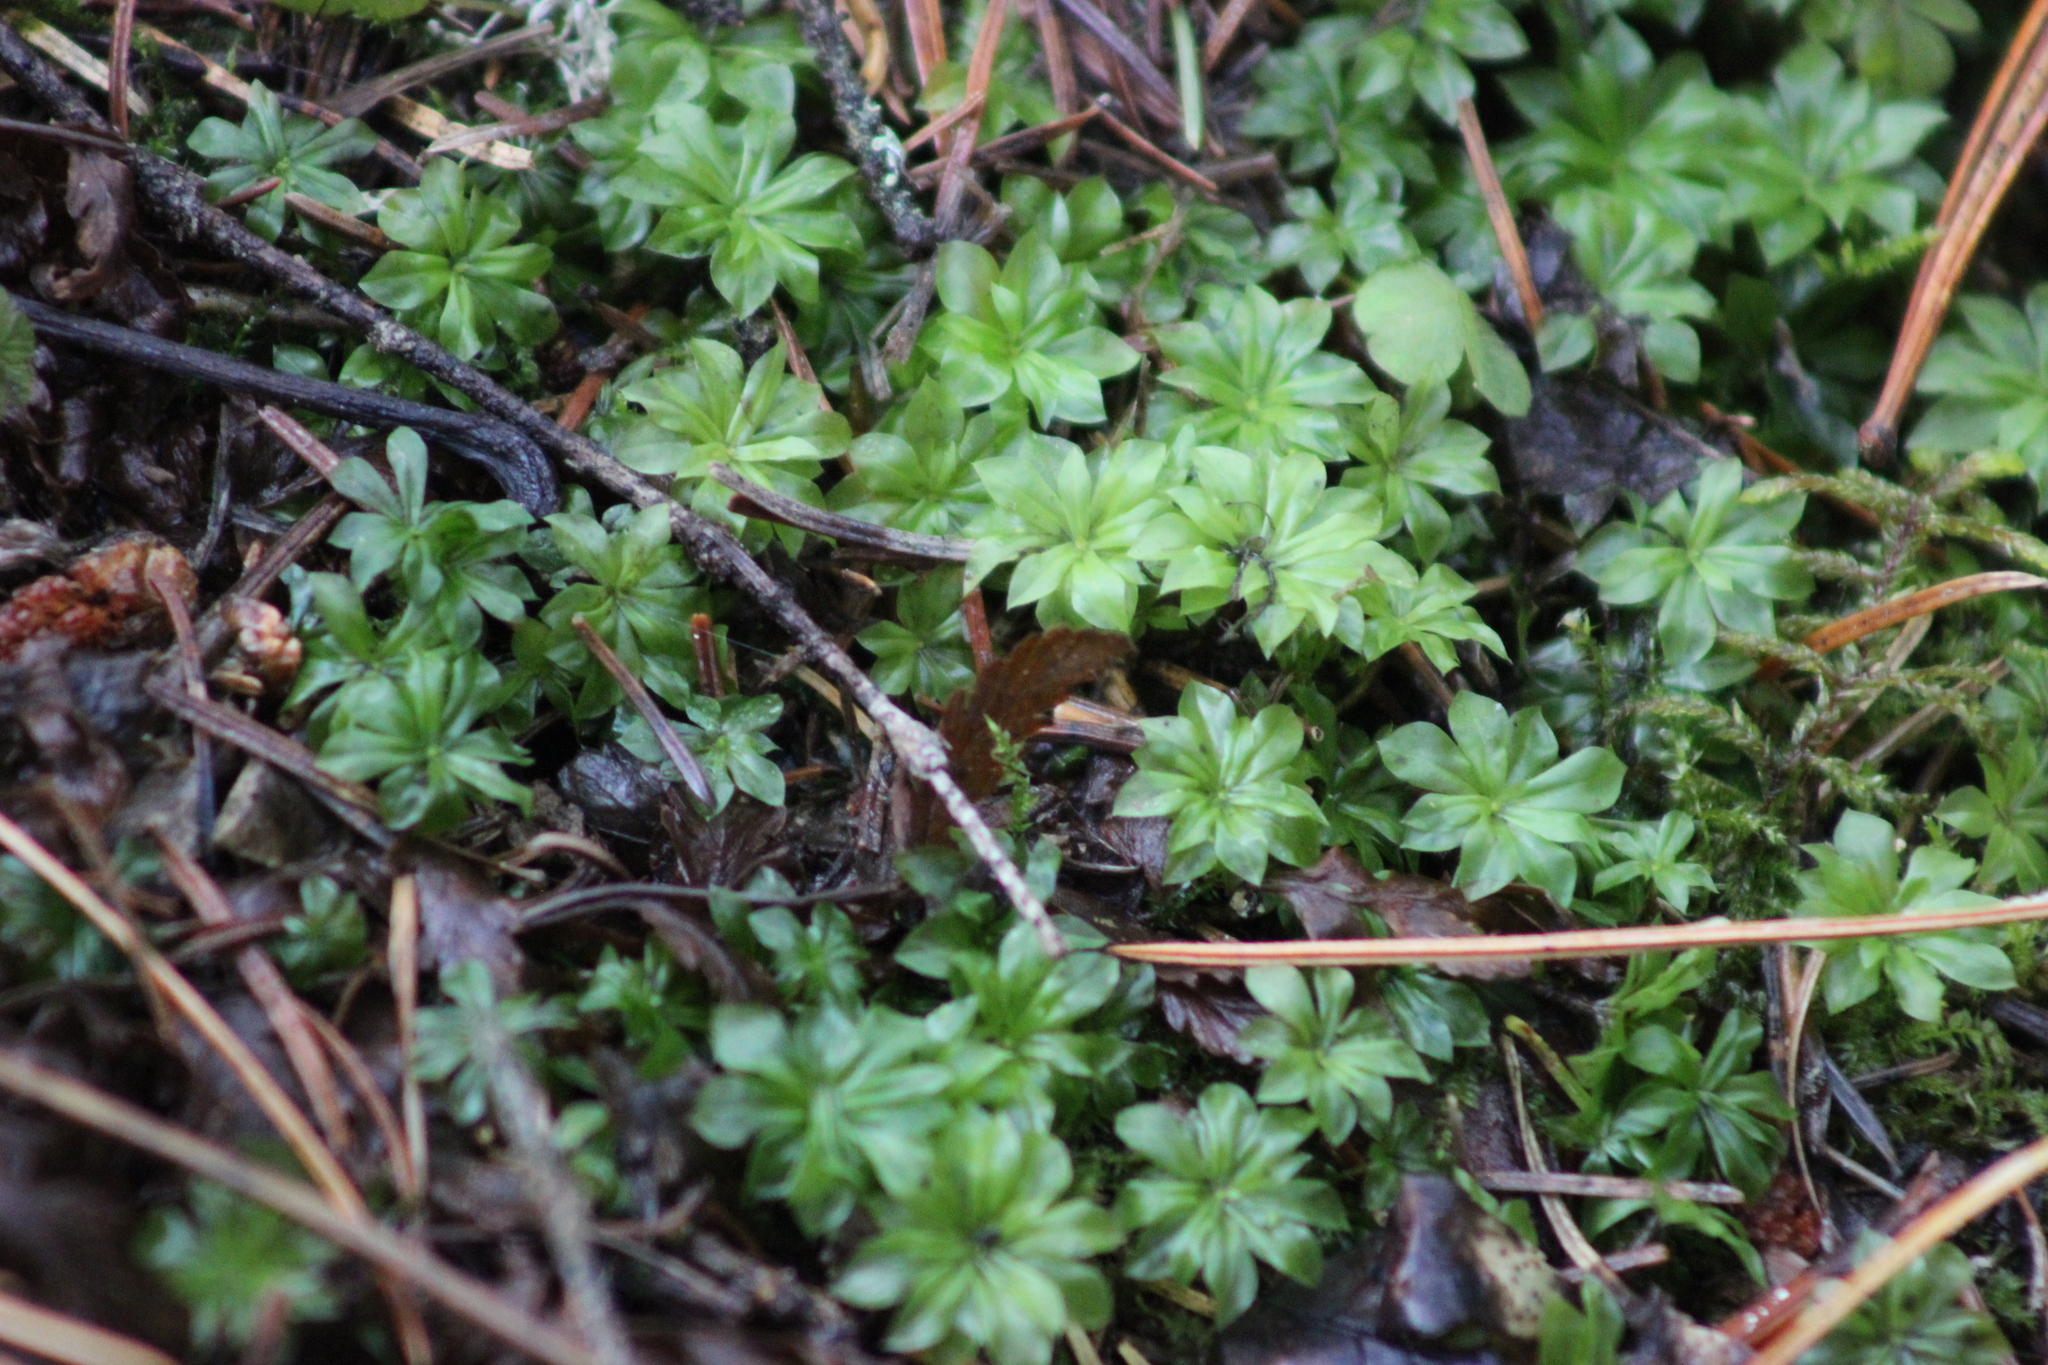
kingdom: Plantae
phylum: Bryophyta
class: Bryopsida
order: Bryales
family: Bryaceae
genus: Rhodobryum
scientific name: Rhodobryum roseum
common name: Rose-moss
